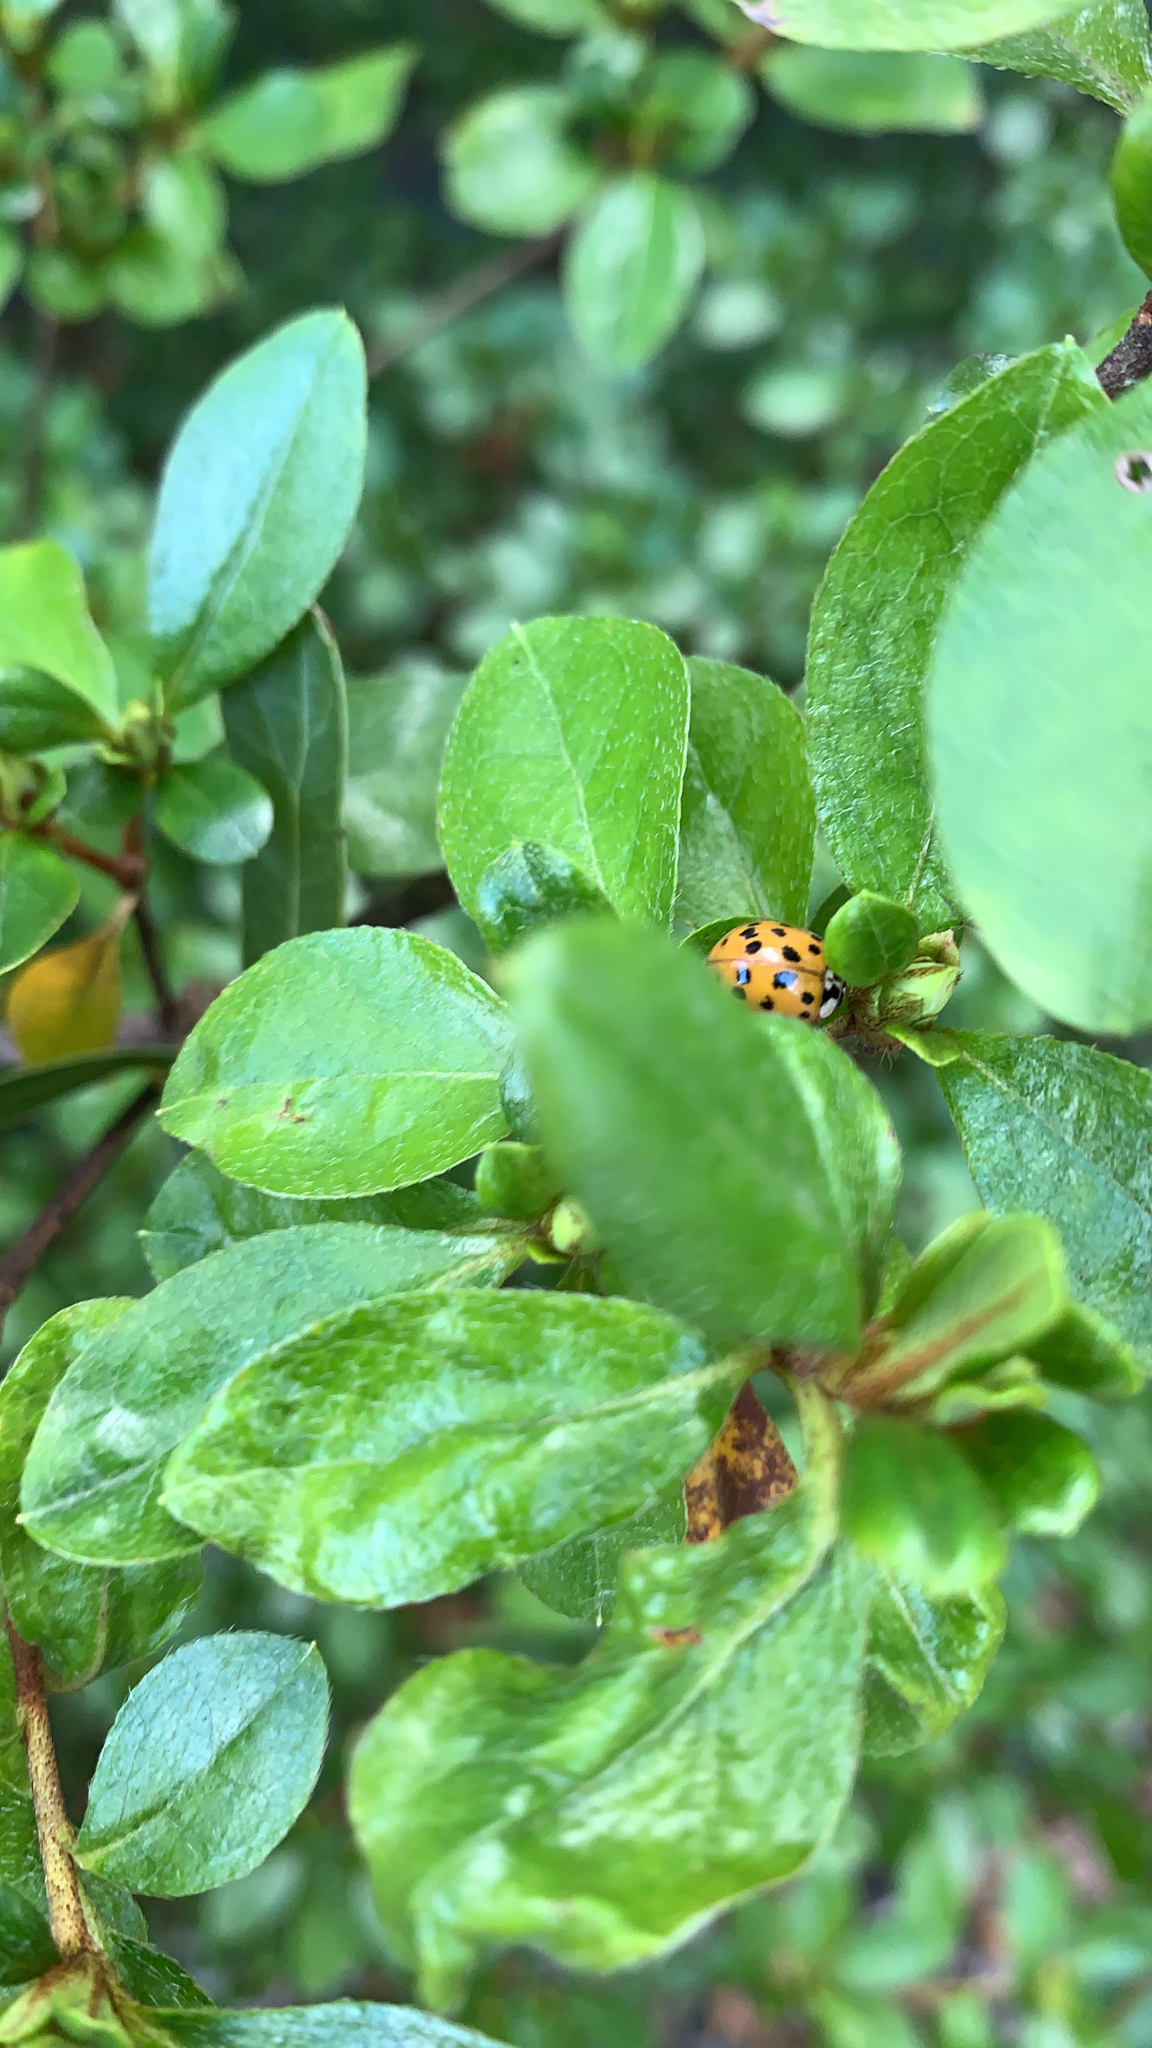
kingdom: Animalia
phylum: Arthropoda
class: Insecta
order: Coleoptera
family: Coccinellidae
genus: Harmonia
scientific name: Harmonia axyridis
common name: Harlequin ladybird
